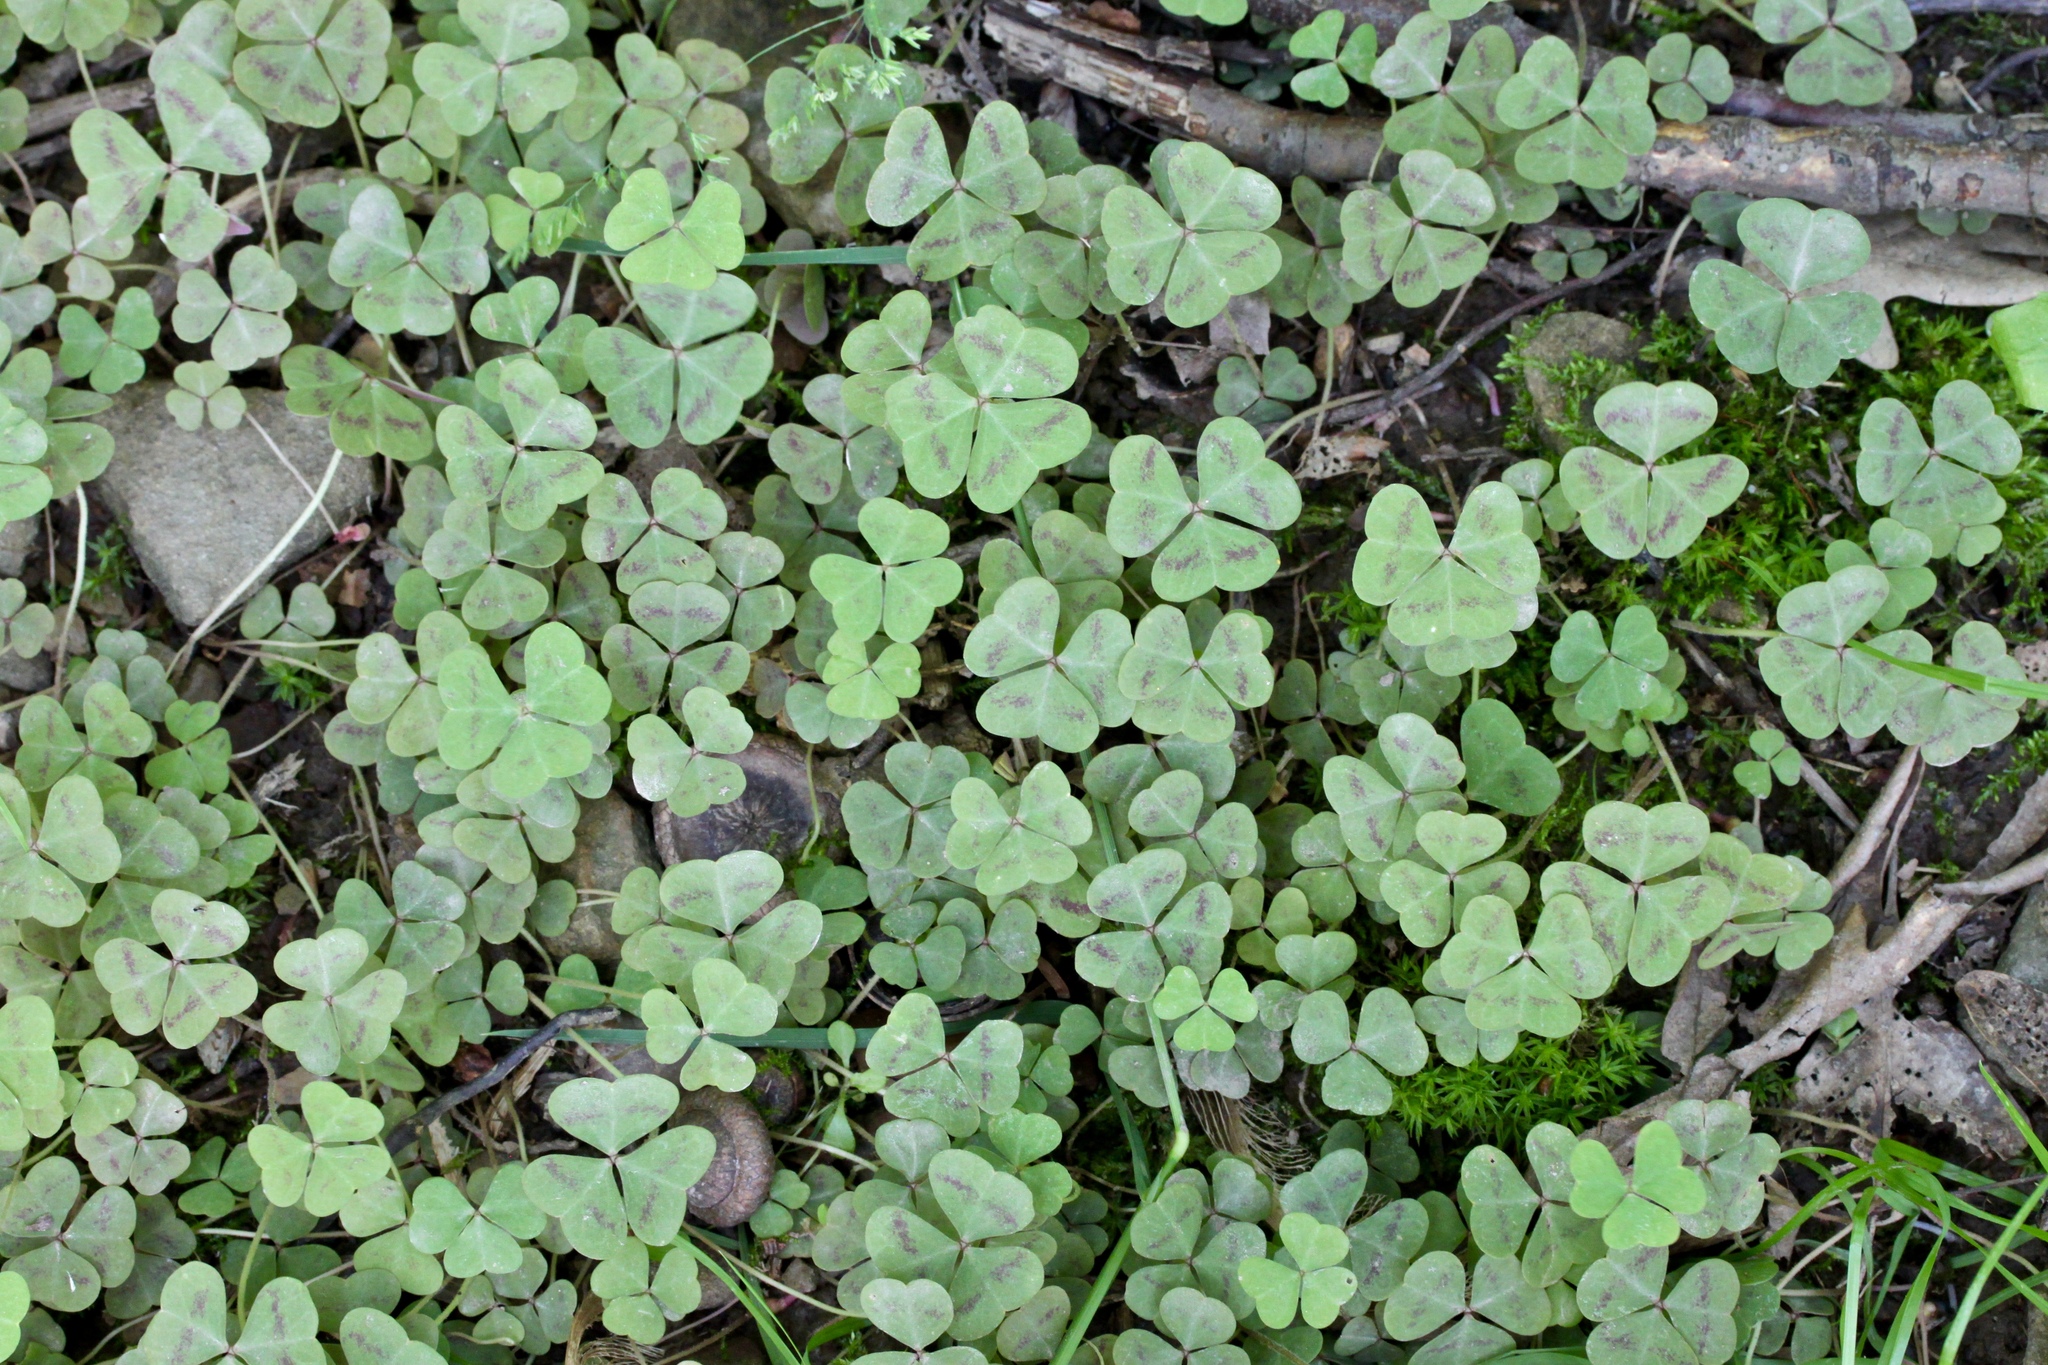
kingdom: Plantae
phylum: Tracheophyta
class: Magnoliopsida
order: Oxalidales
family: Oxalidaceae
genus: Oxalis
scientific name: Oxalis violacea
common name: Violet wood-sorrel
